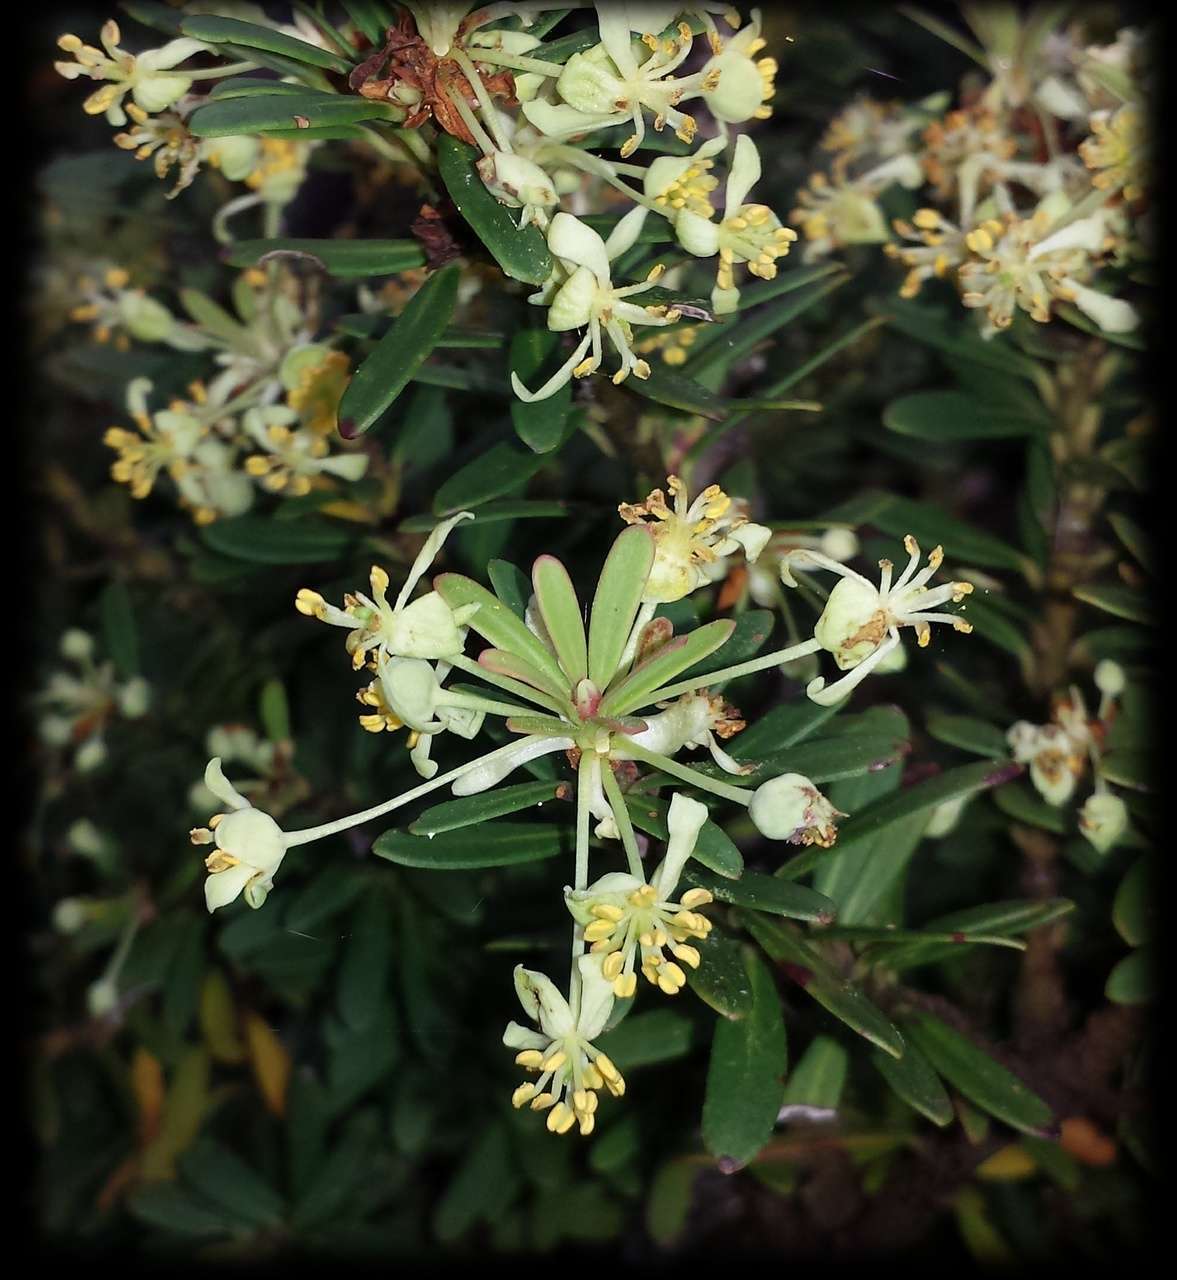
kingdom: Plantae
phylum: Tracheophyta
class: Magnoliopsida
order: Canellales
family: Winteraceae
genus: Drimys
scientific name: Drimys vickeriana
